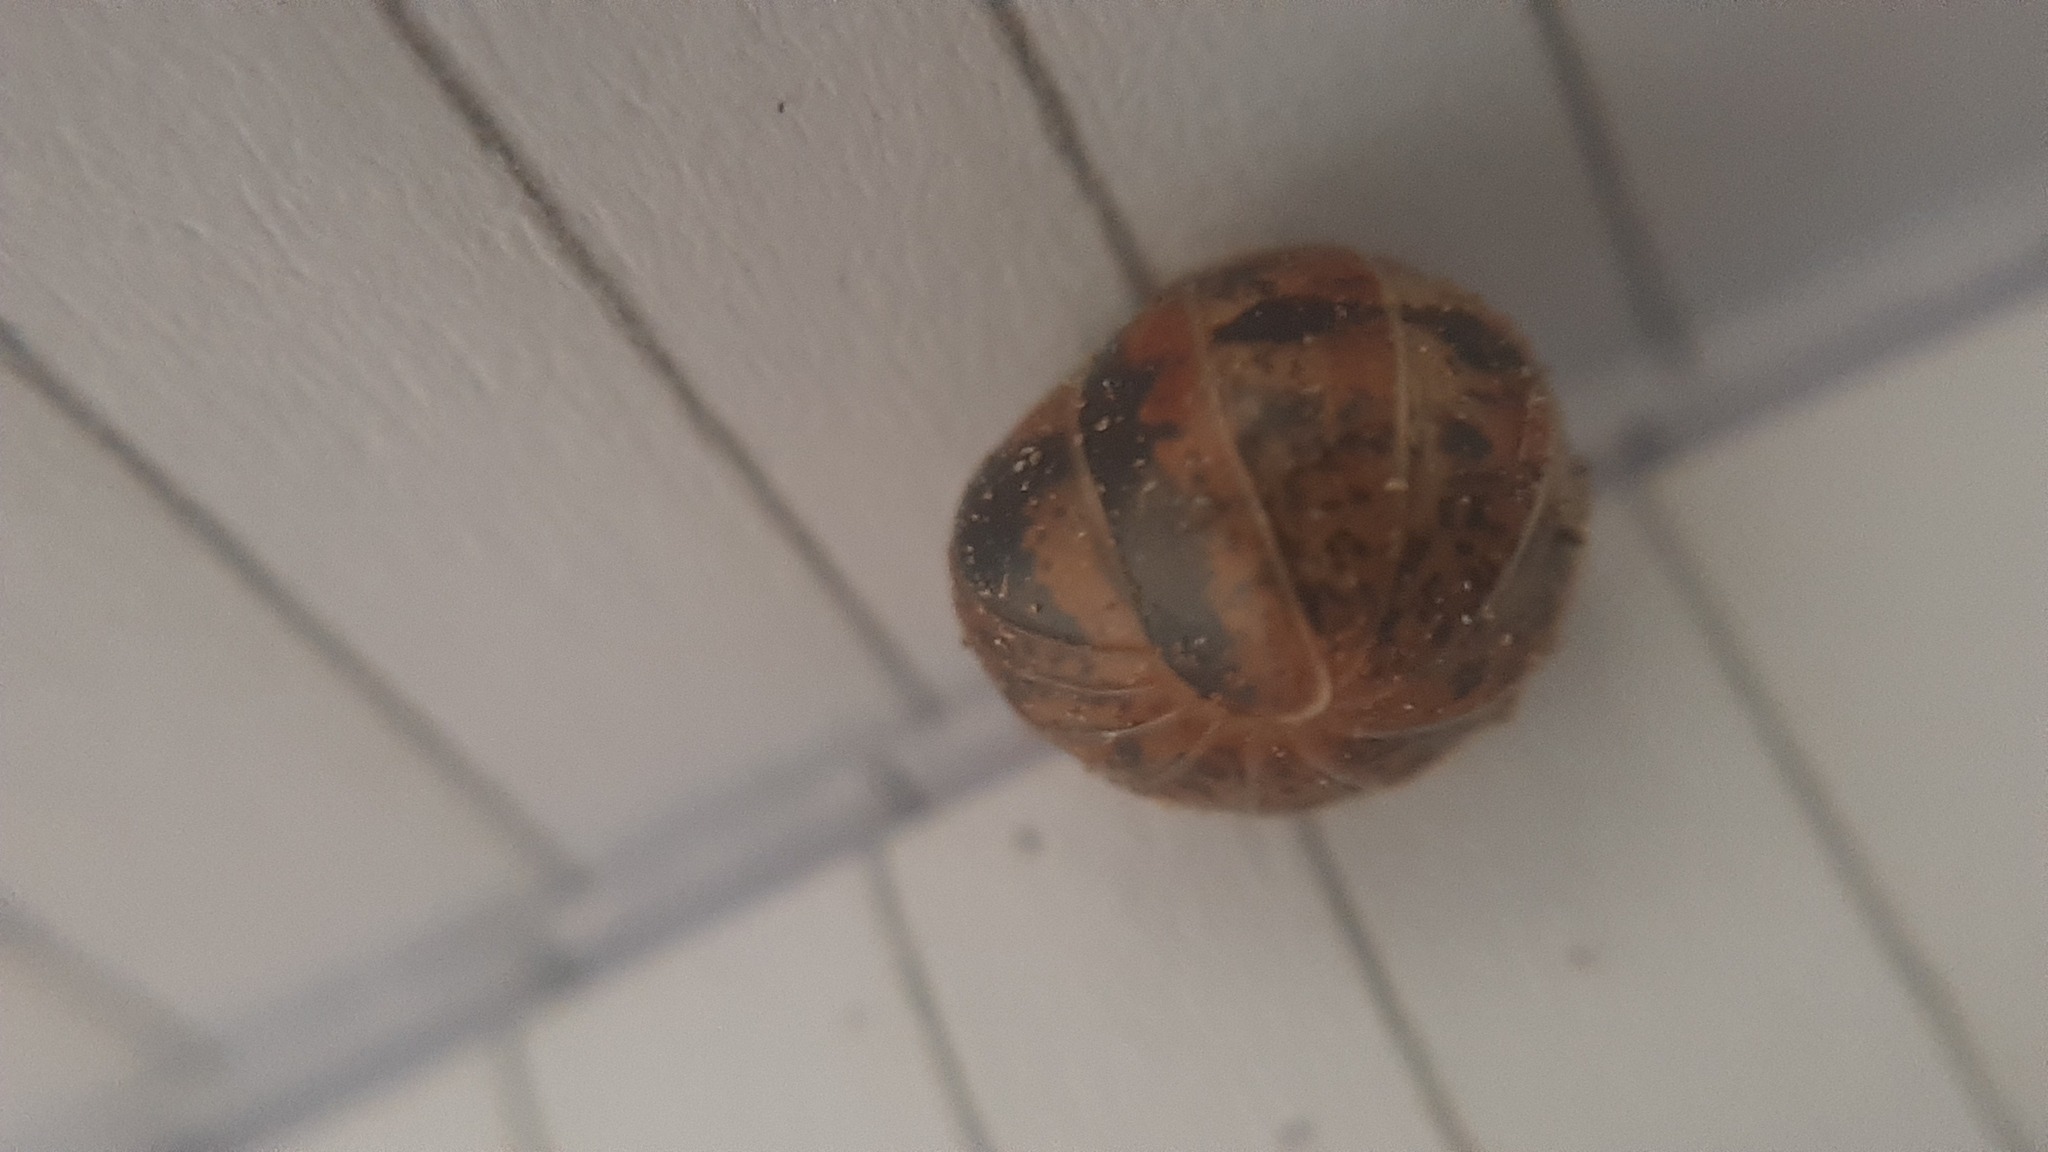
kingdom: Animalia
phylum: Arthropoda
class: Diplopoda
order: Glomerida
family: Glomeridae
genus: Glomeris
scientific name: Glomeris klugii
